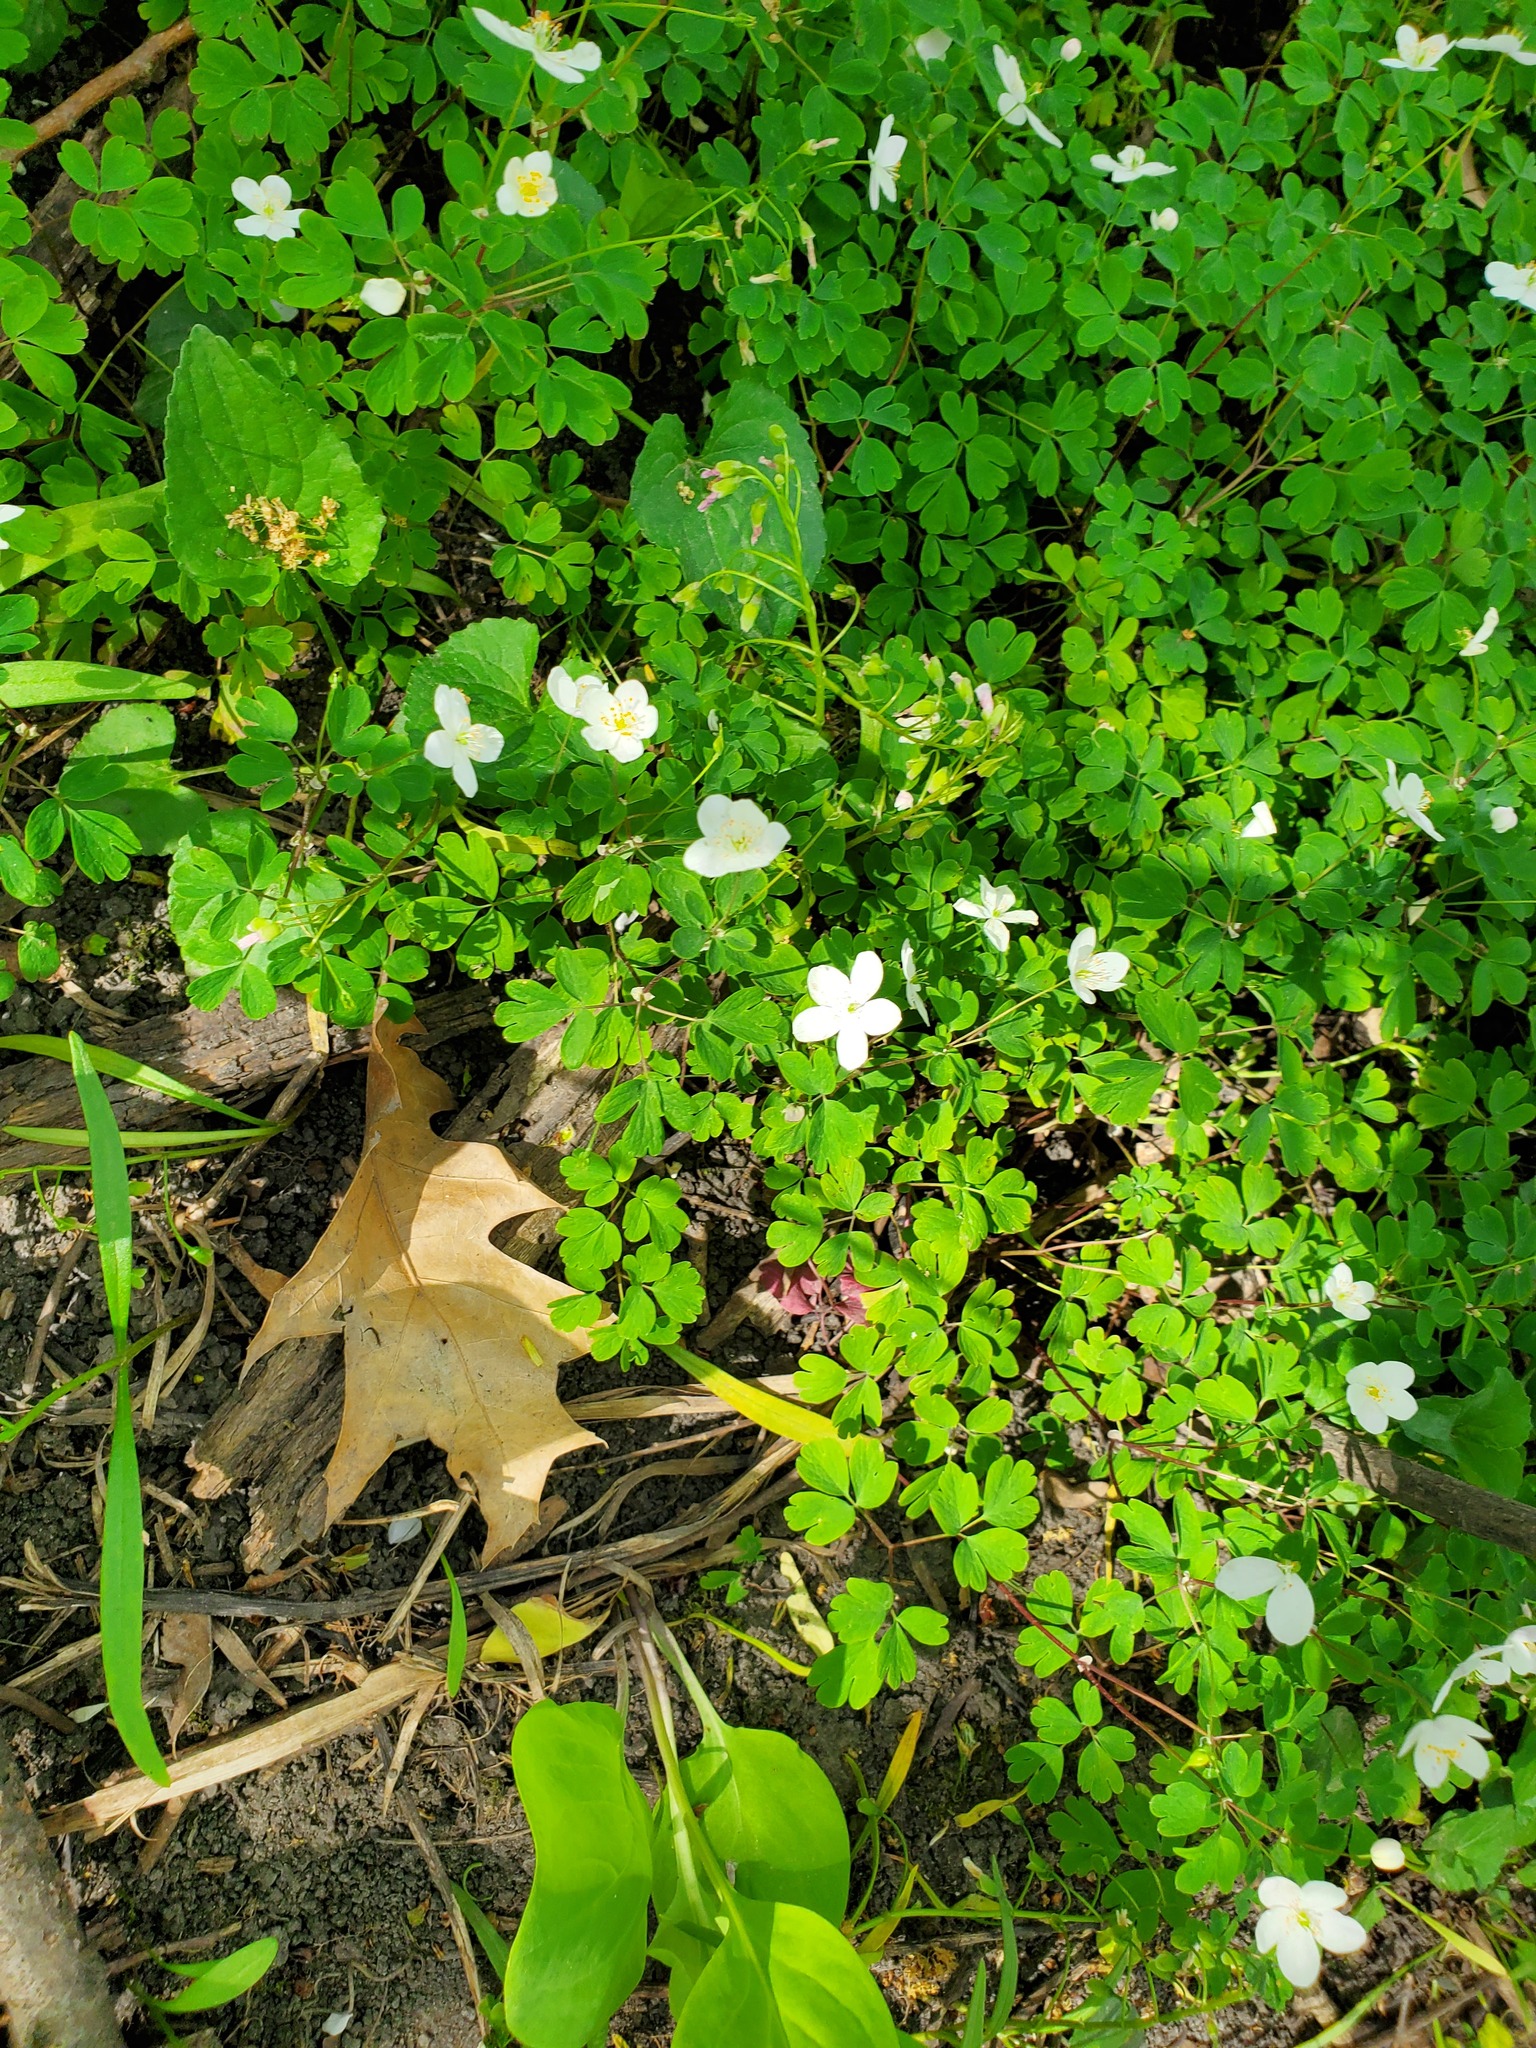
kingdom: Plantae
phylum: Tracheophyta
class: Magnoliopsida
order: Ranunculales
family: Ranunculaceae
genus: Enemion
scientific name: Enemion biternatum
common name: Eastern false rue-anemone
